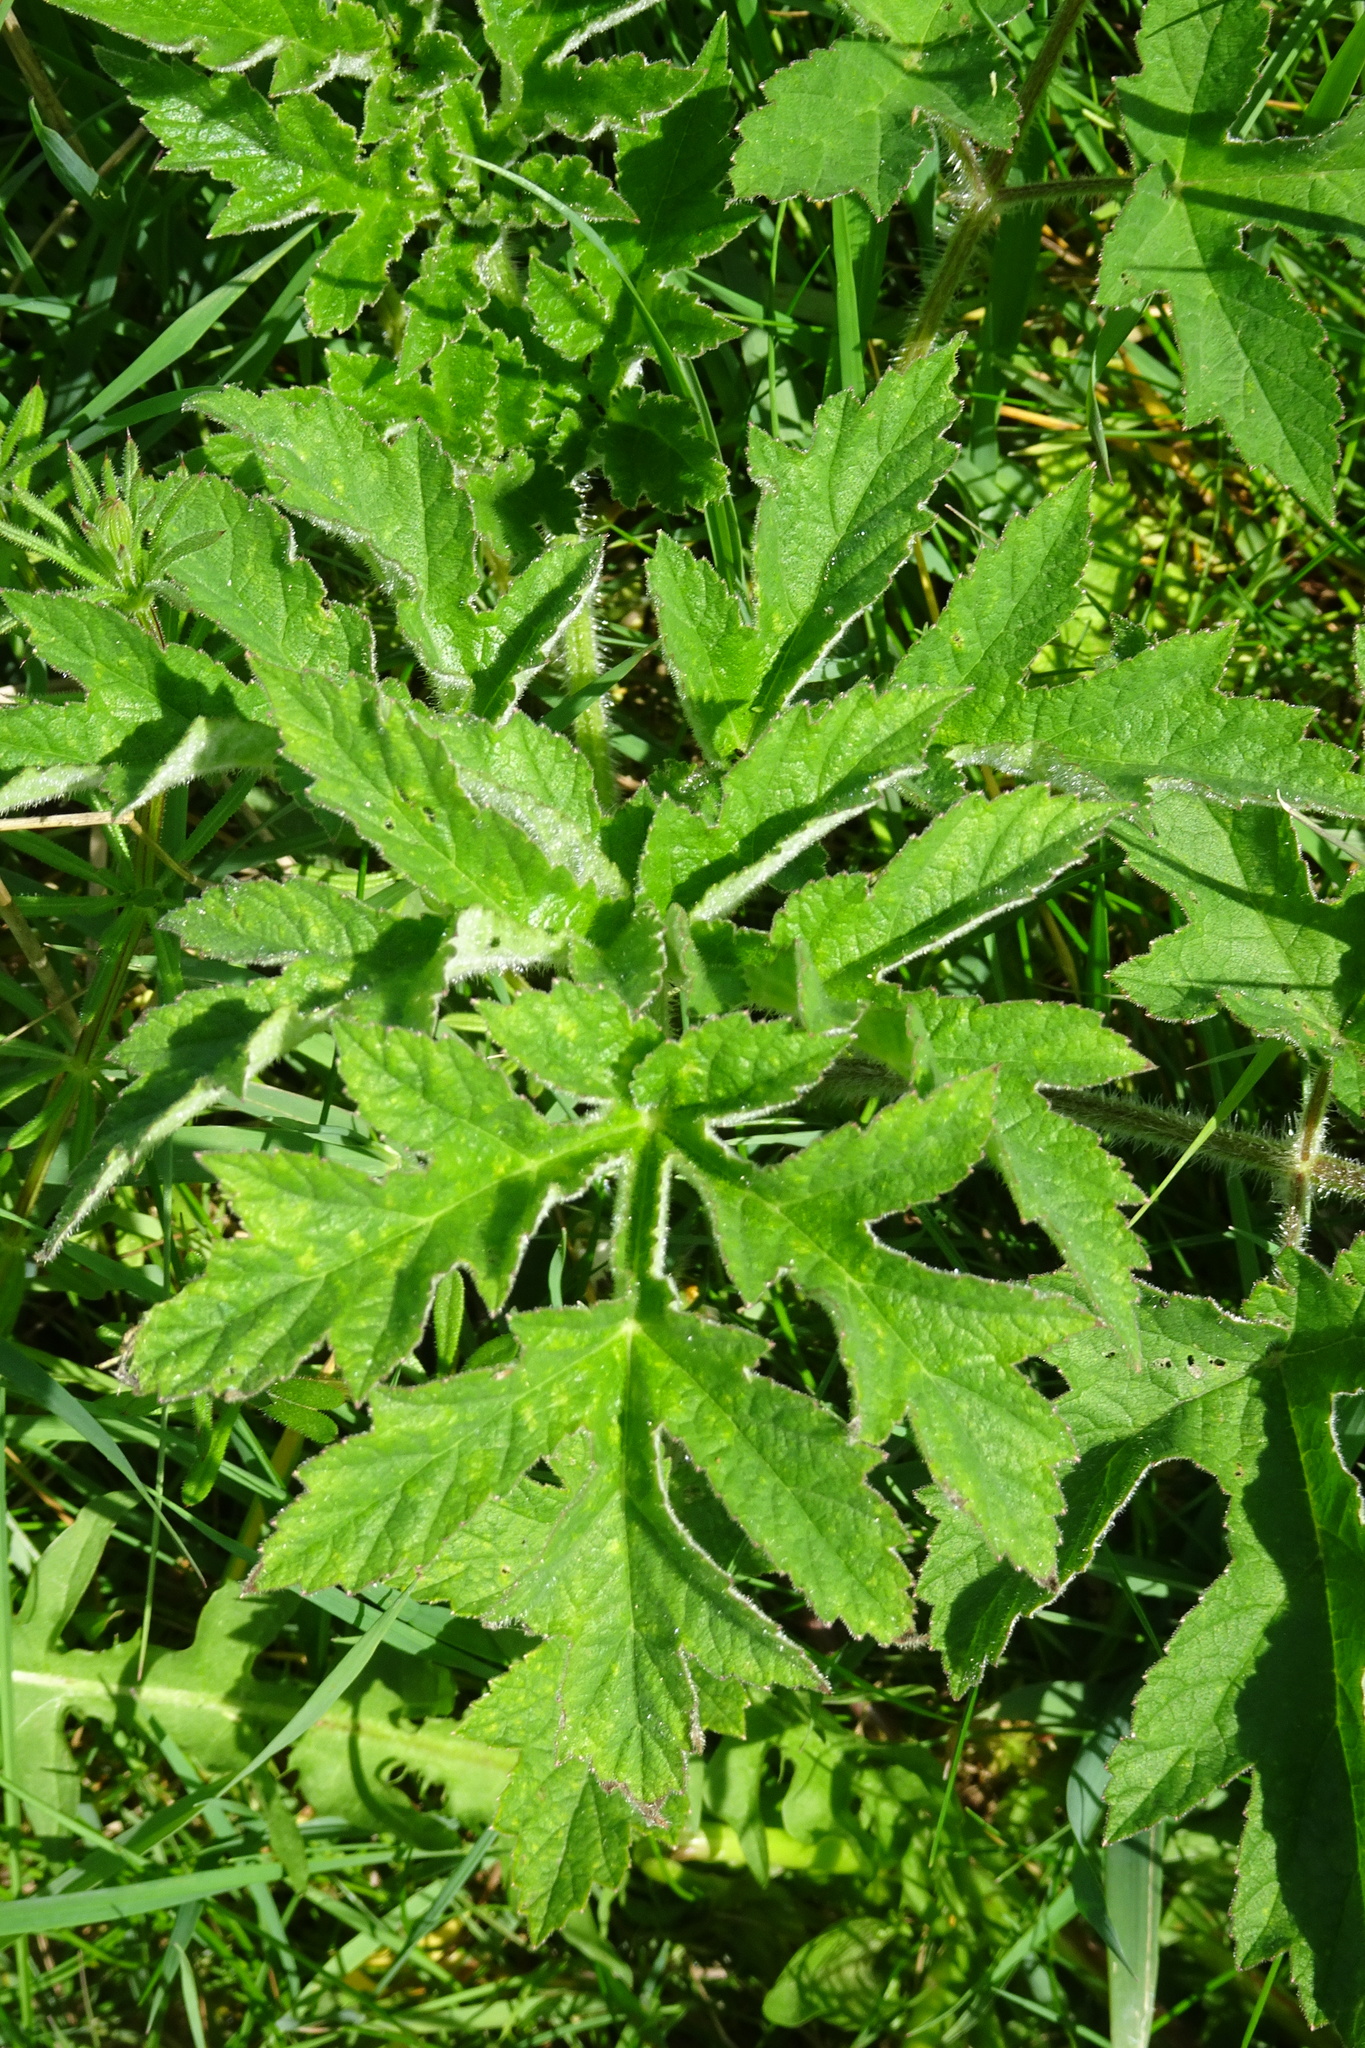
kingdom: Plantae
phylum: Tracheophyta
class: Magnoliopsida
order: Apiales
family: Apiaceae
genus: Heracleum
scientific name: Heracleum sphondylium
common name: Hogweed
